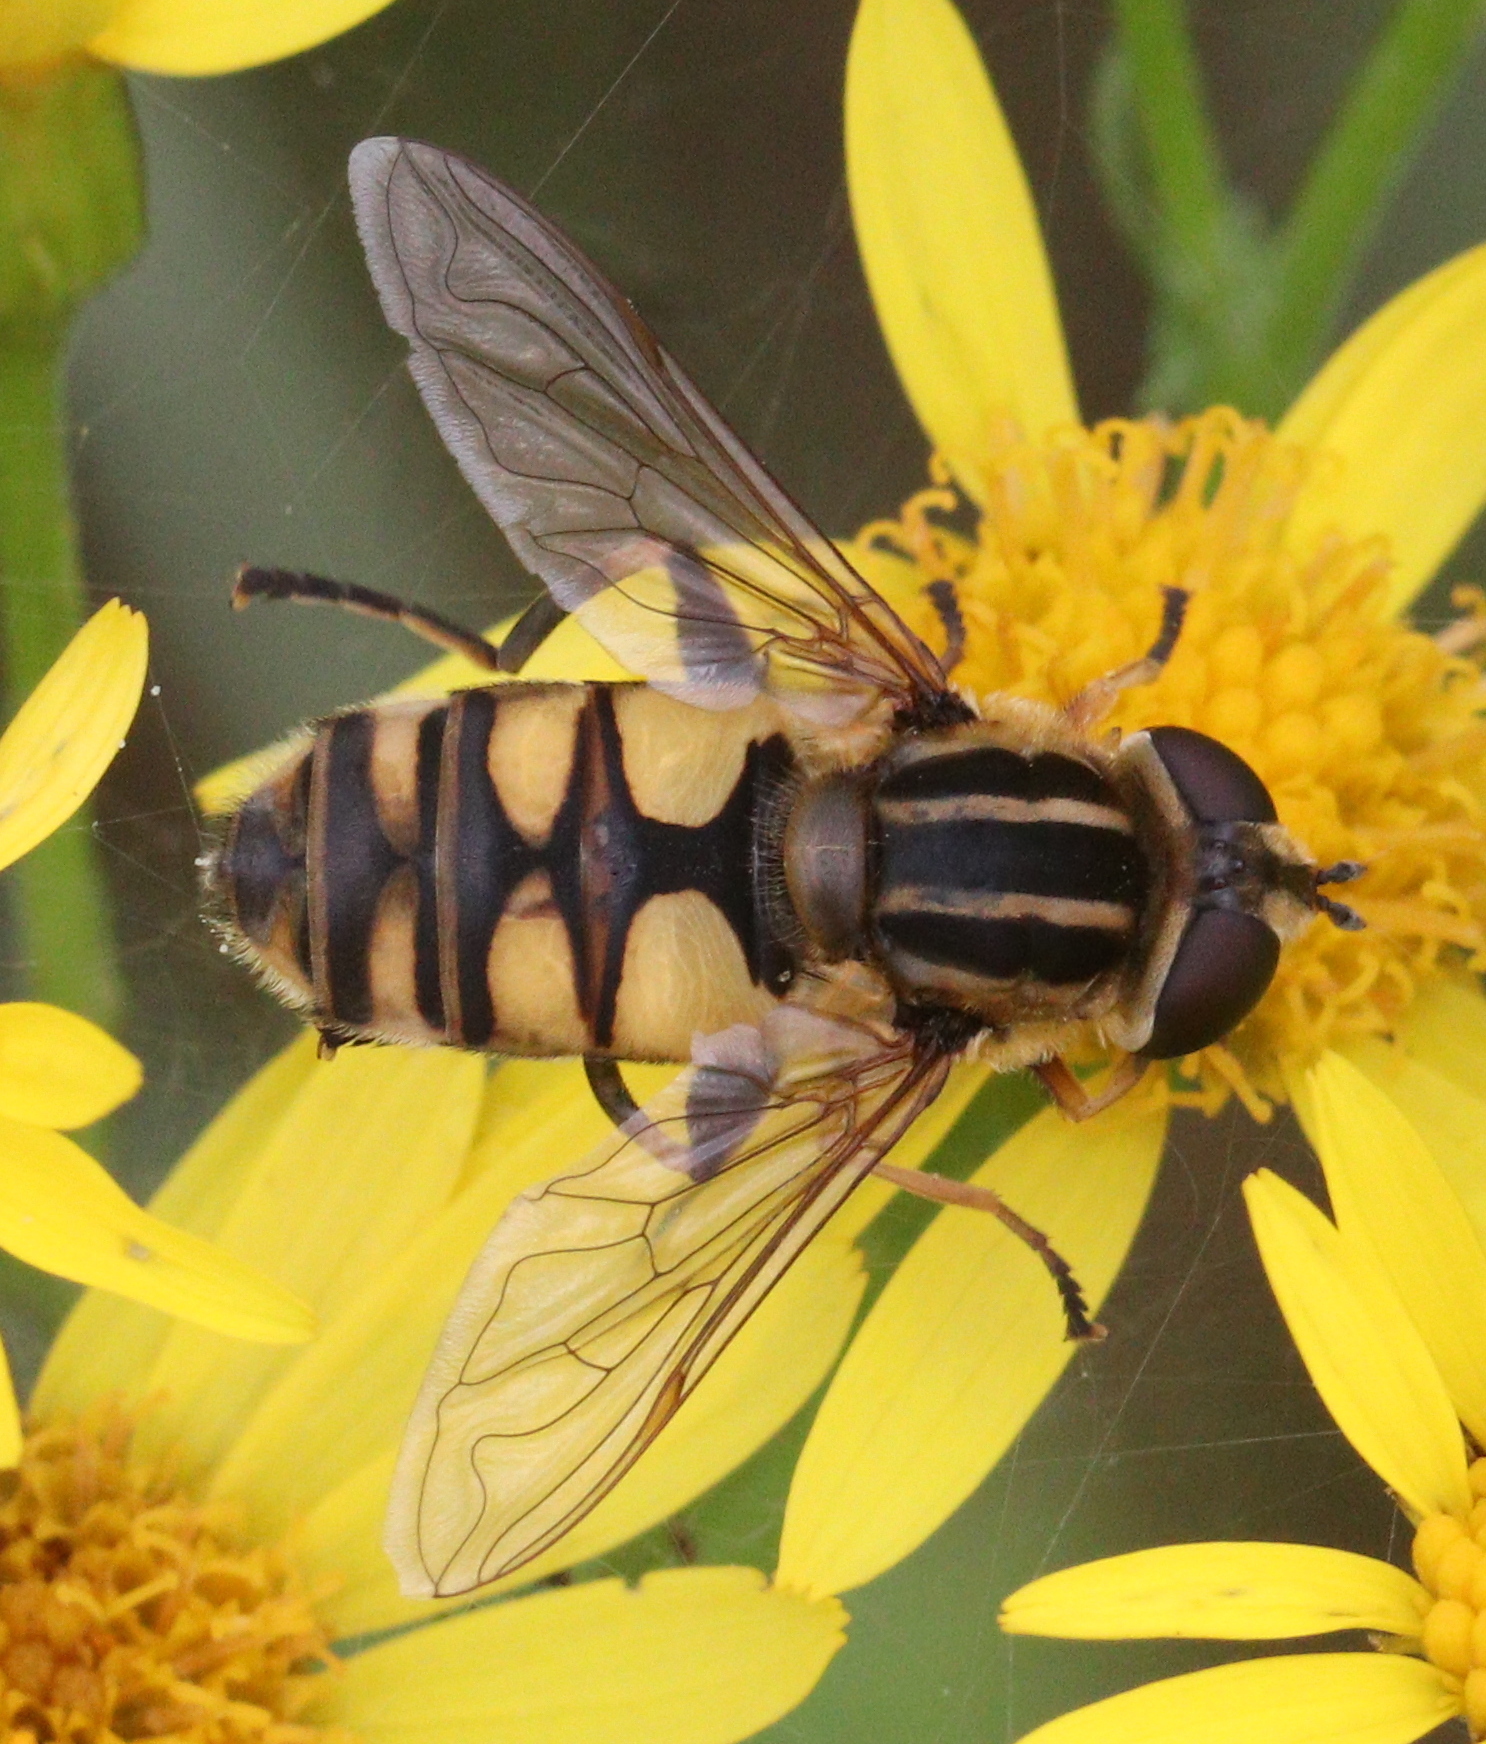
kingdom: Animalia
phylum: Arthropoda
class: Insecta
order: Diptera
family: Syrphidae
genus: Helophilus
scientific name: Helophilus hybridus
